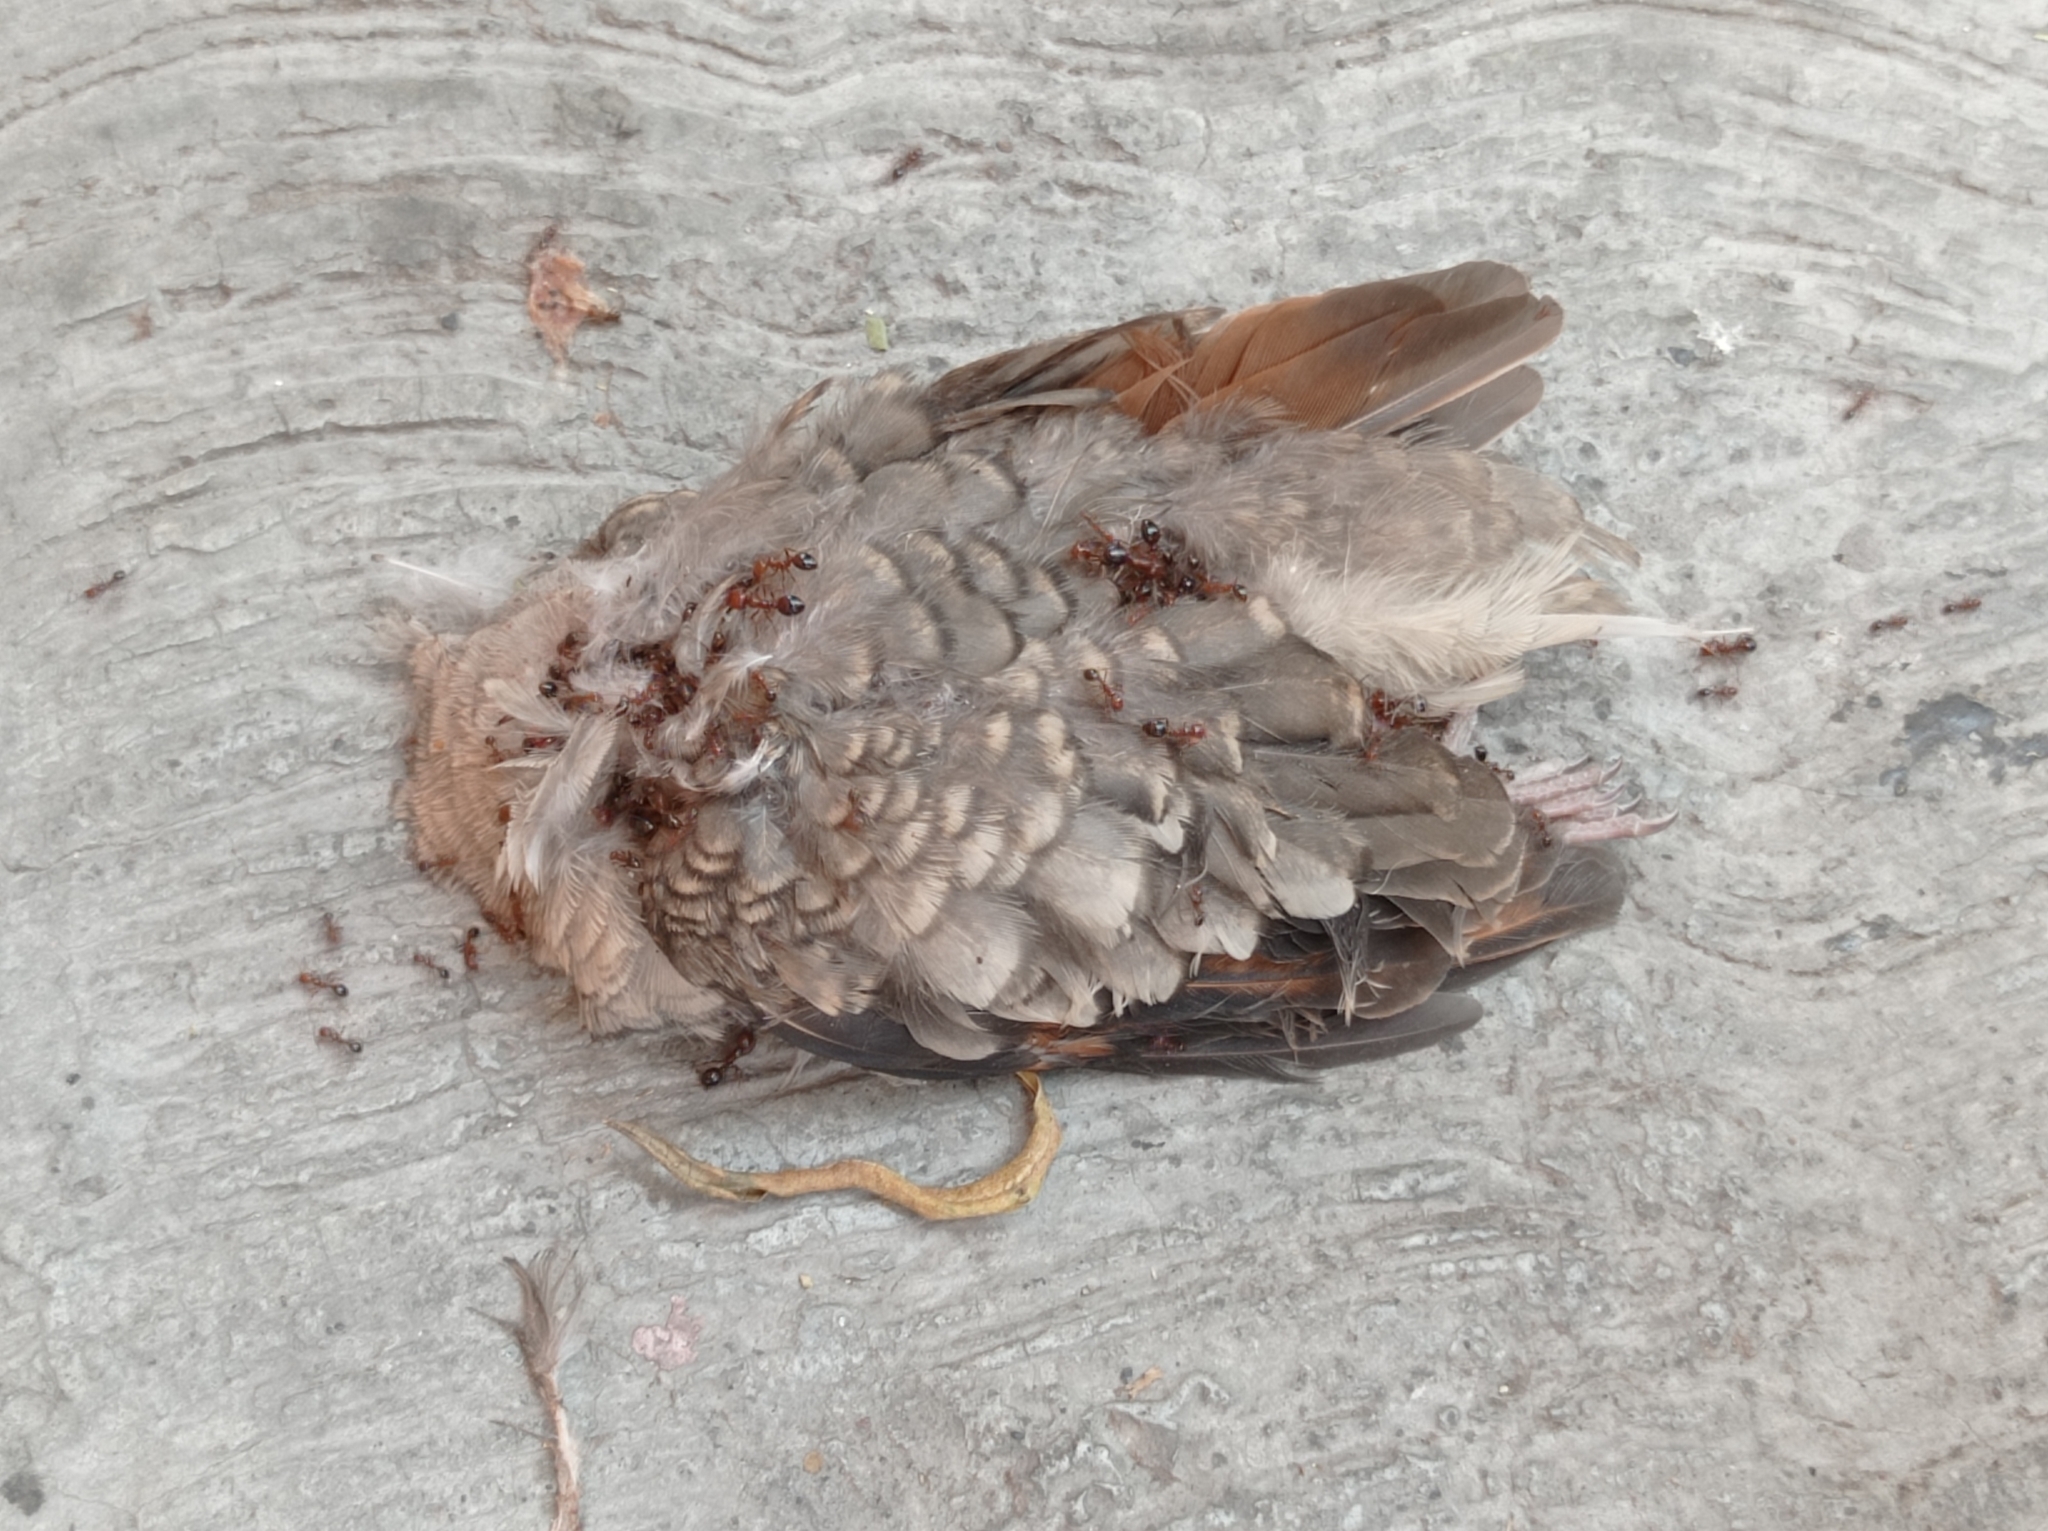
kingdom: Animalia
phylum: Chordata
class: Aves
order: Columbiformes
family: Columbidae
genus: Columbina
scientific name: Columbina inca
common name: Inca dove
